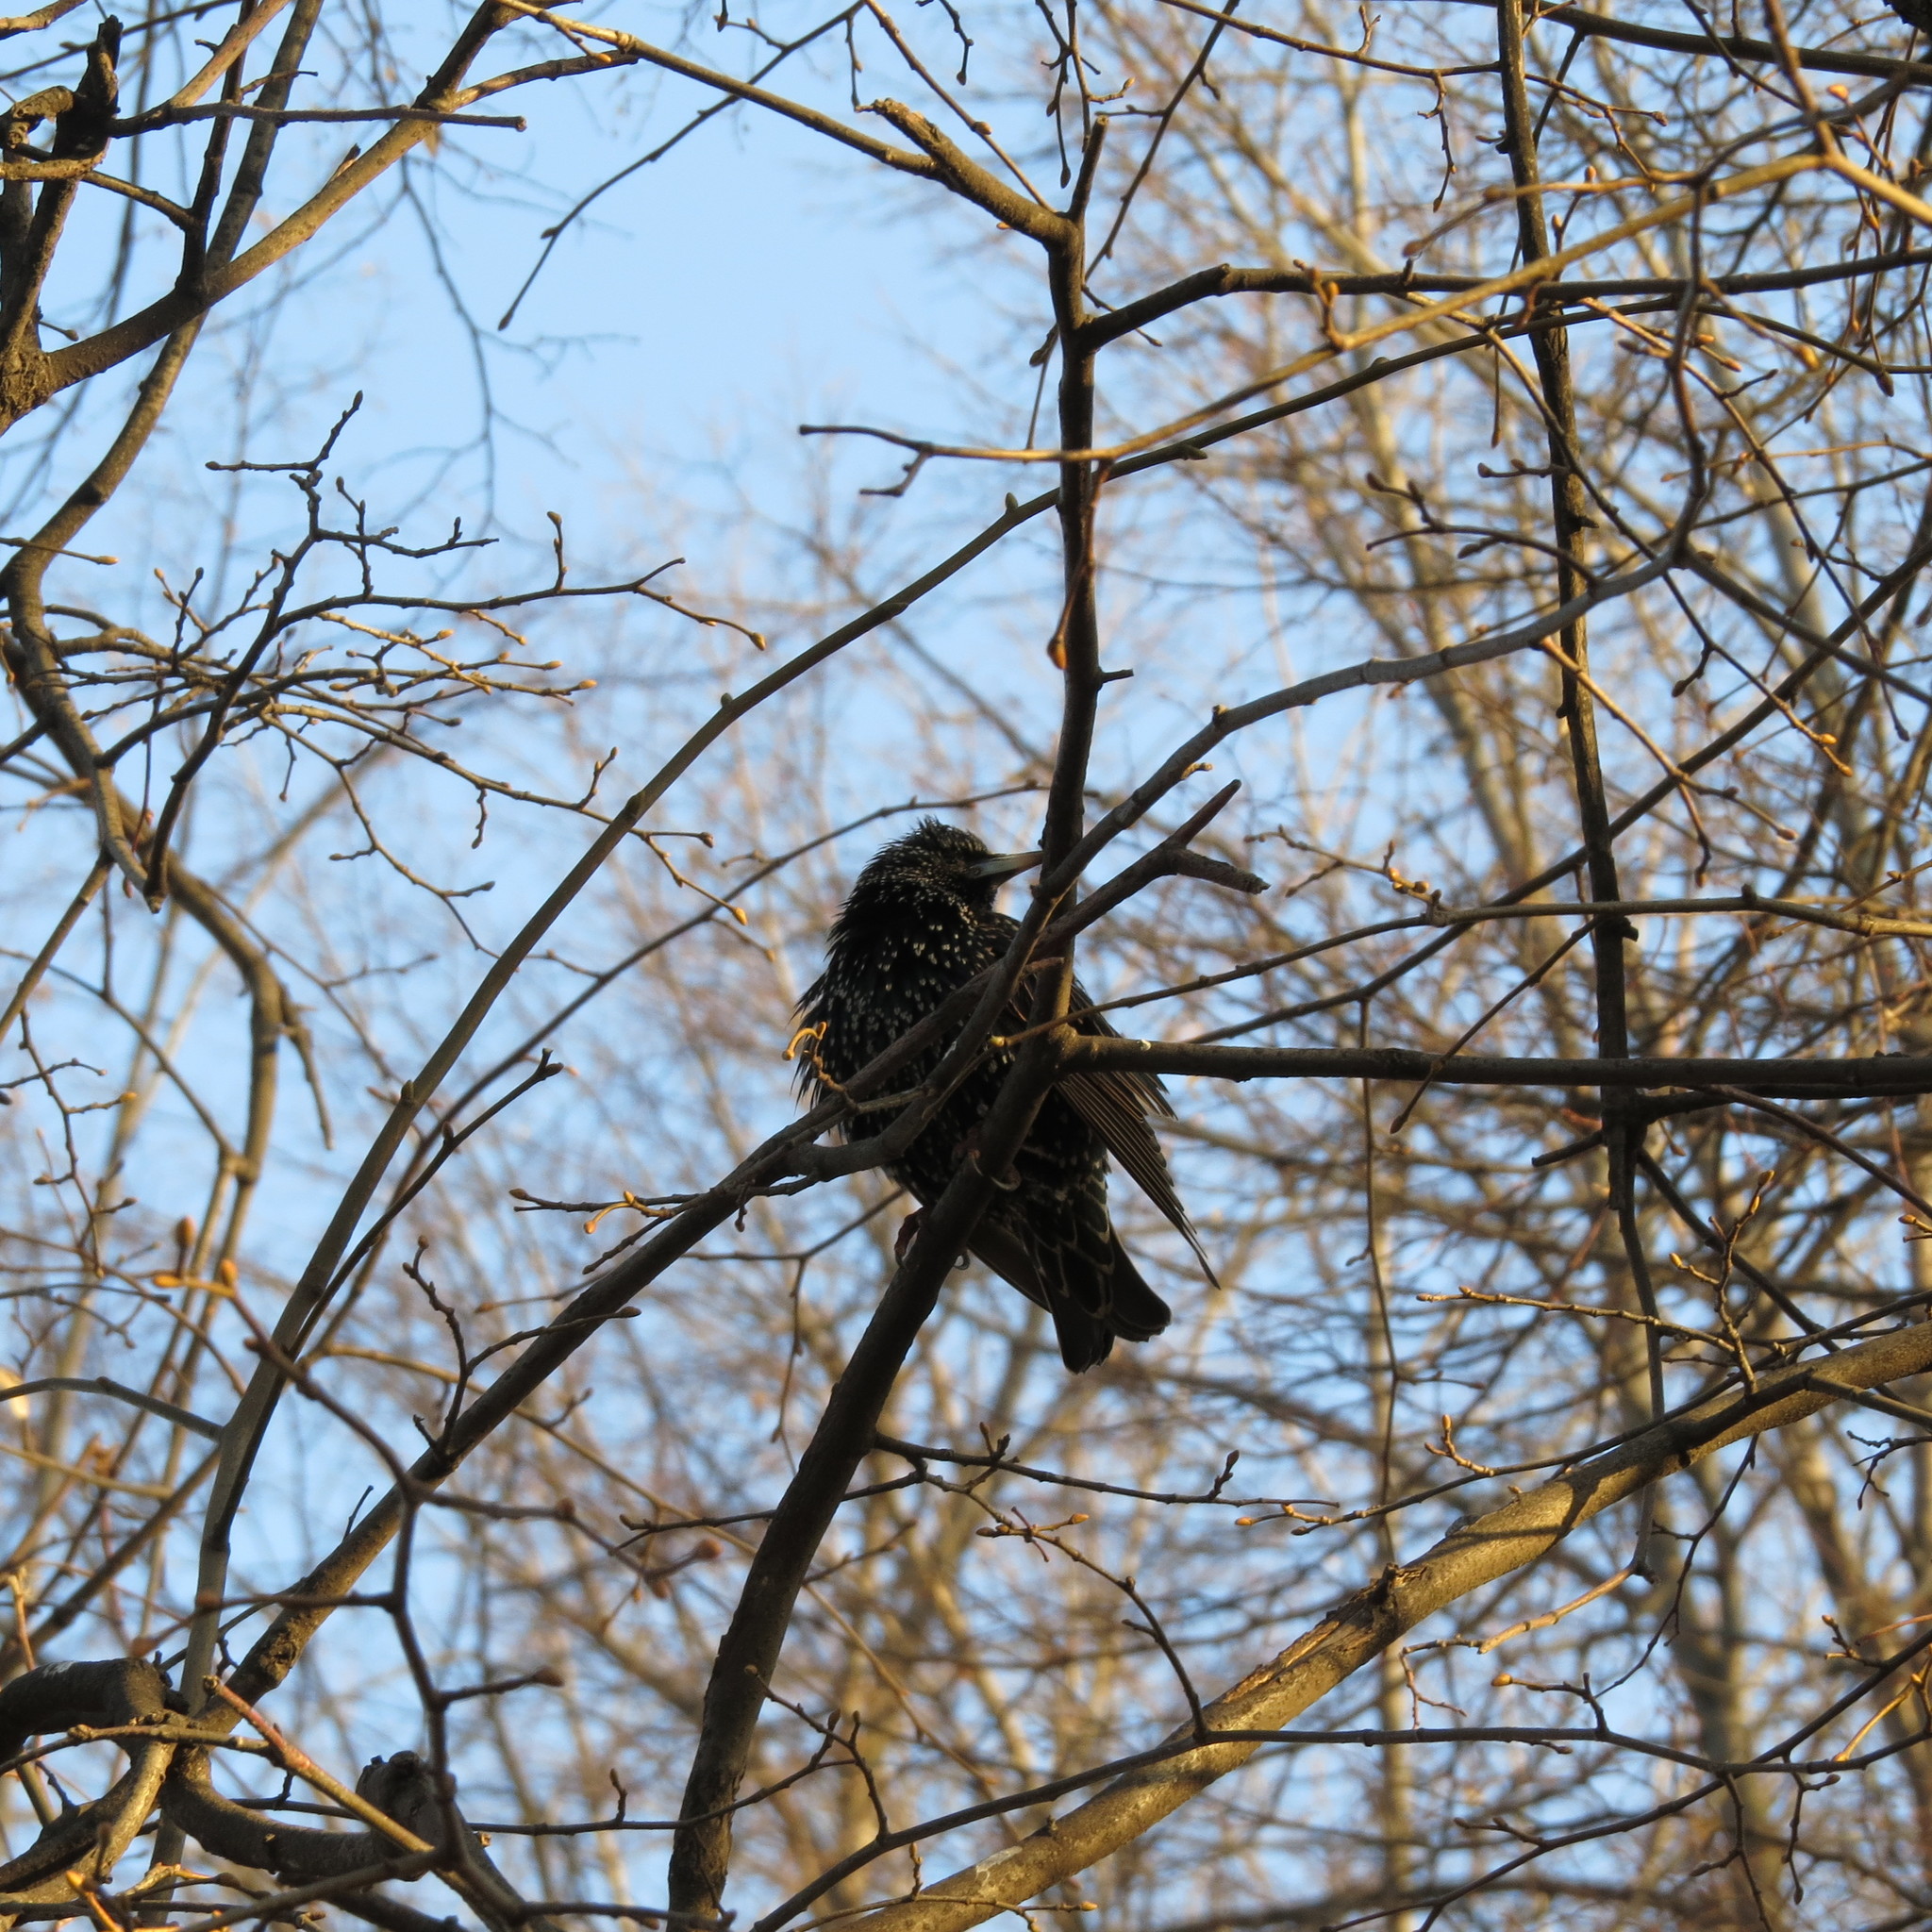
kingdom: Animalia
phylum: Chordata
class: Aves
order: Passeriformes
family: Sturnidae
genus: Sturnus
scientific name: Sturnus vulgaris
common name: Common starling
